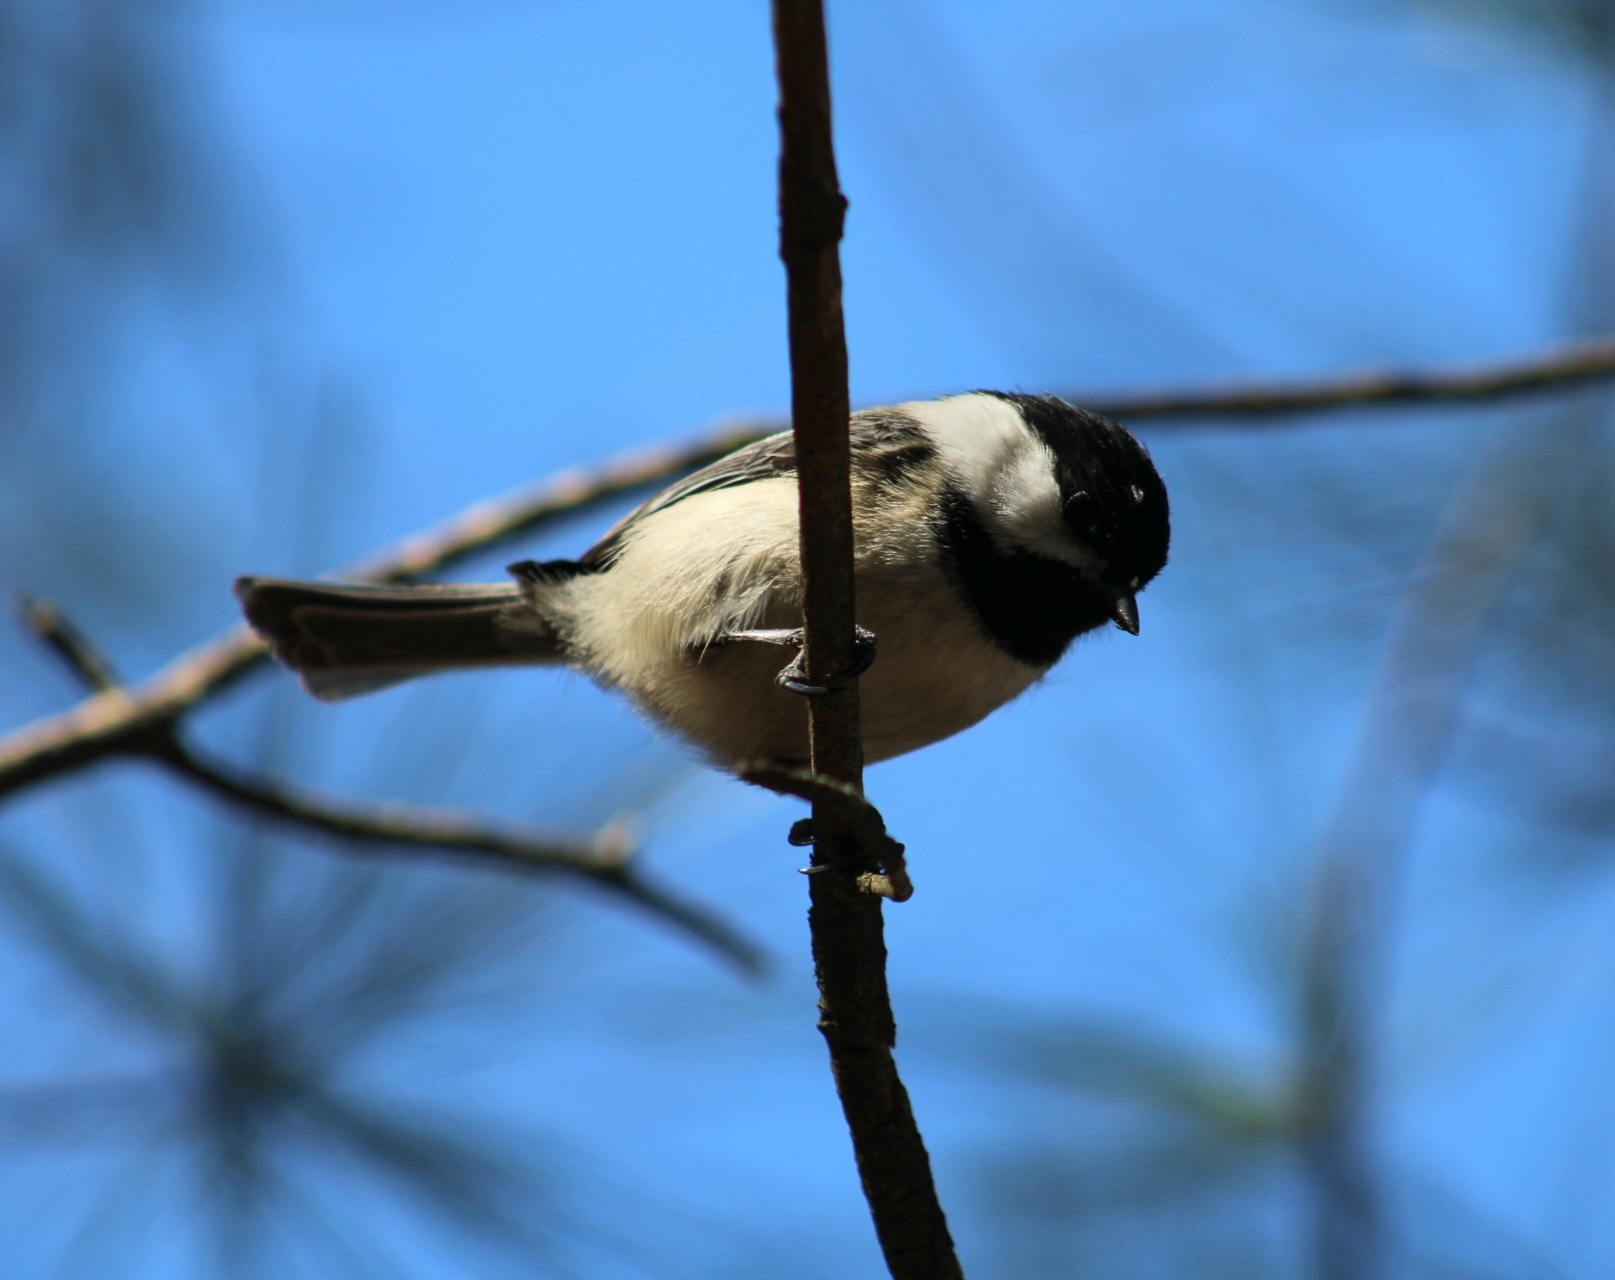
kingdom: Animalia
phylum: Chordata
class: Aves
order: Passeriformes
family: Paridae
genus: Poecile
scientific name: Poecile atricapillus
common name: Black-capped chickadee
